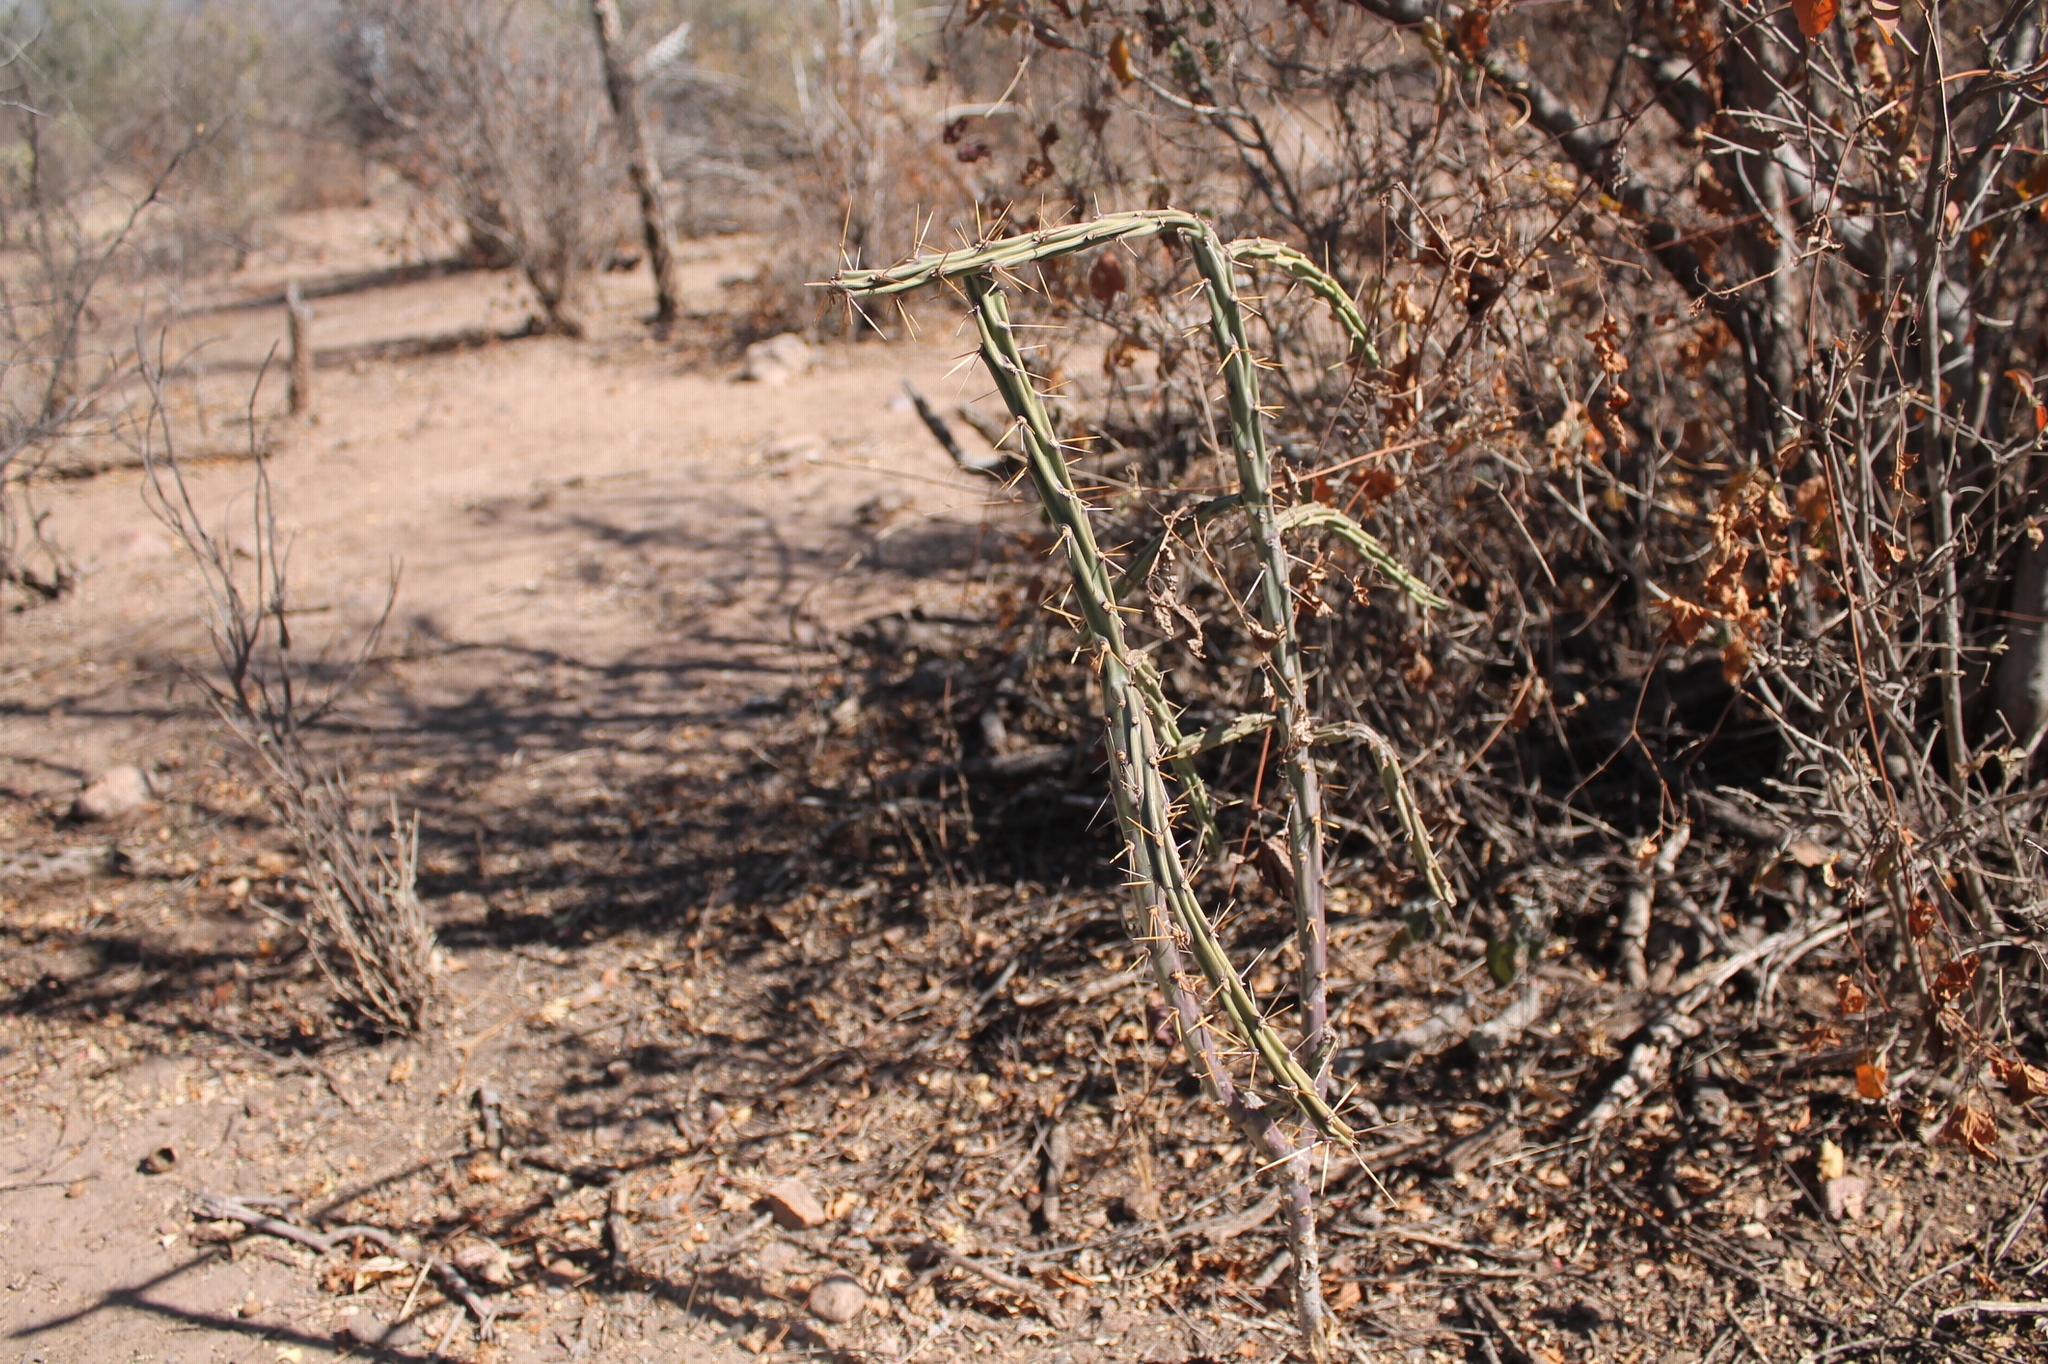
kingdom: Plantae
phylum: Tracheophyta
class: Magnoliopsida
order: Caryophyllales
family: Cactaceae
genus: Cylindropuntia
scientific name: Cylindropuntia kleiniae
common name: Klein's cholla
